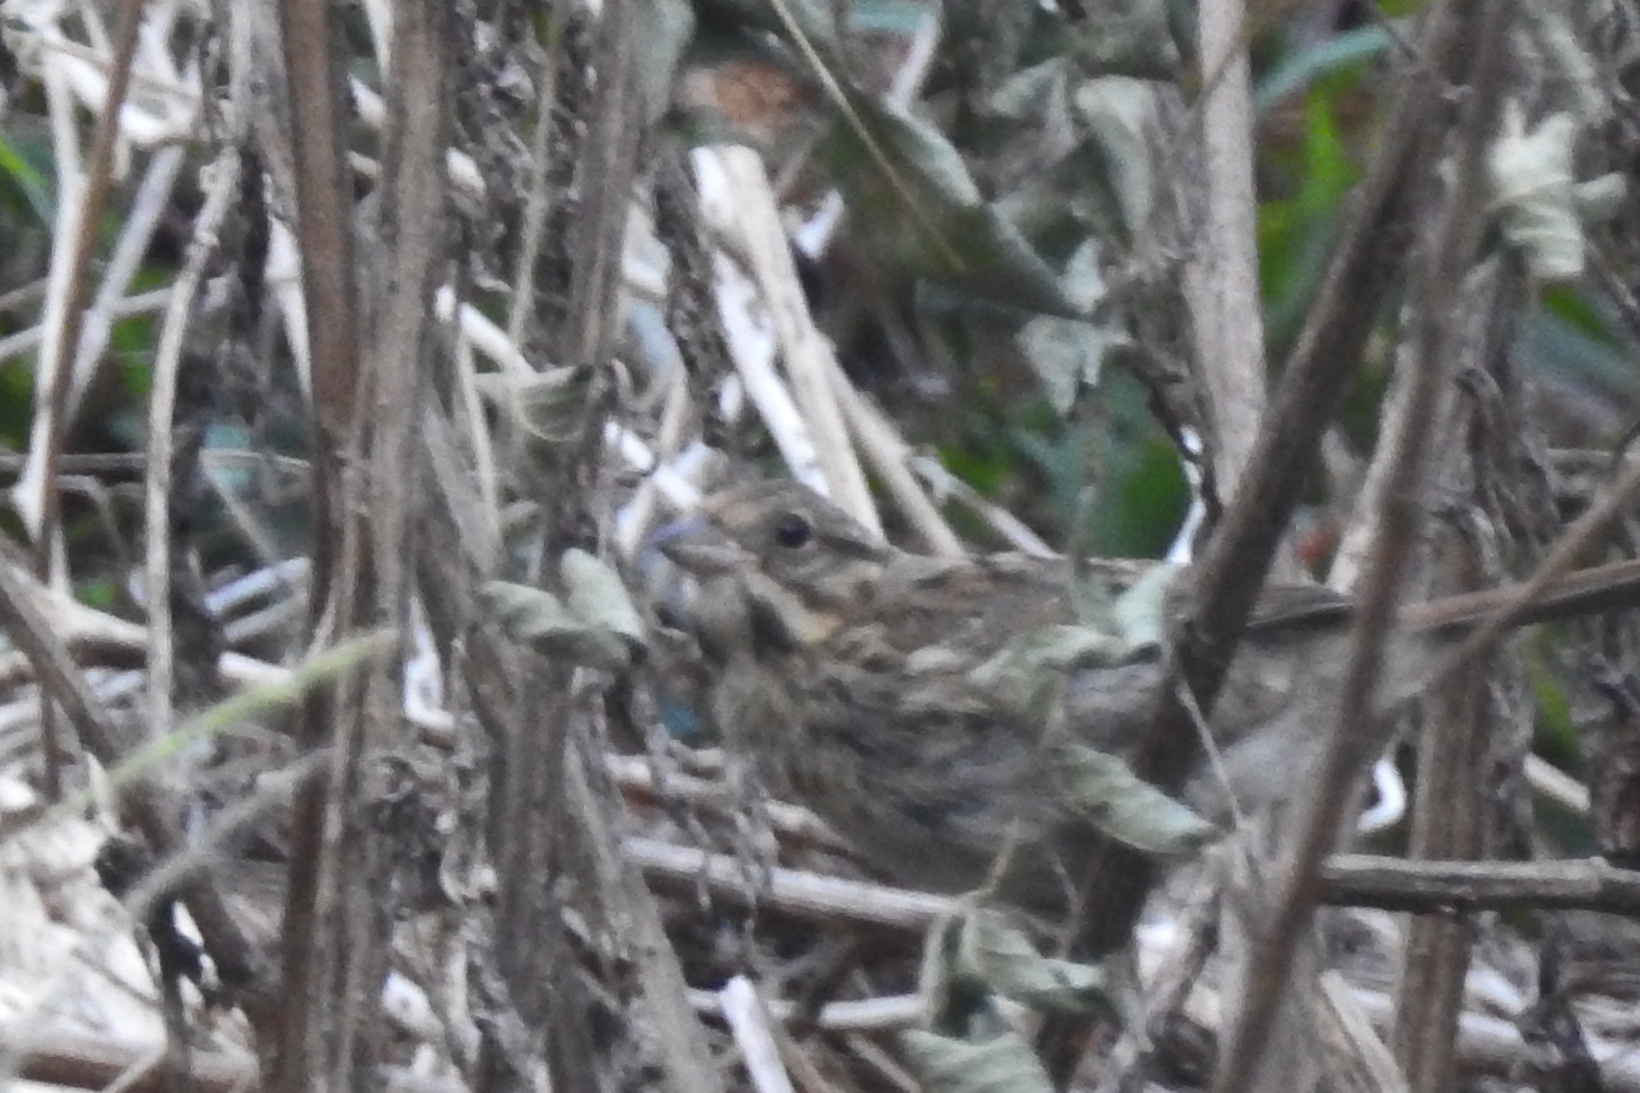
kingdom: Animalia
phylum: Chordata
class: Aves
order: Passeriformes
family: Passerellidae
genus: Melospiza
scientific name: Melospiza melodia
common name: Song sparrow
